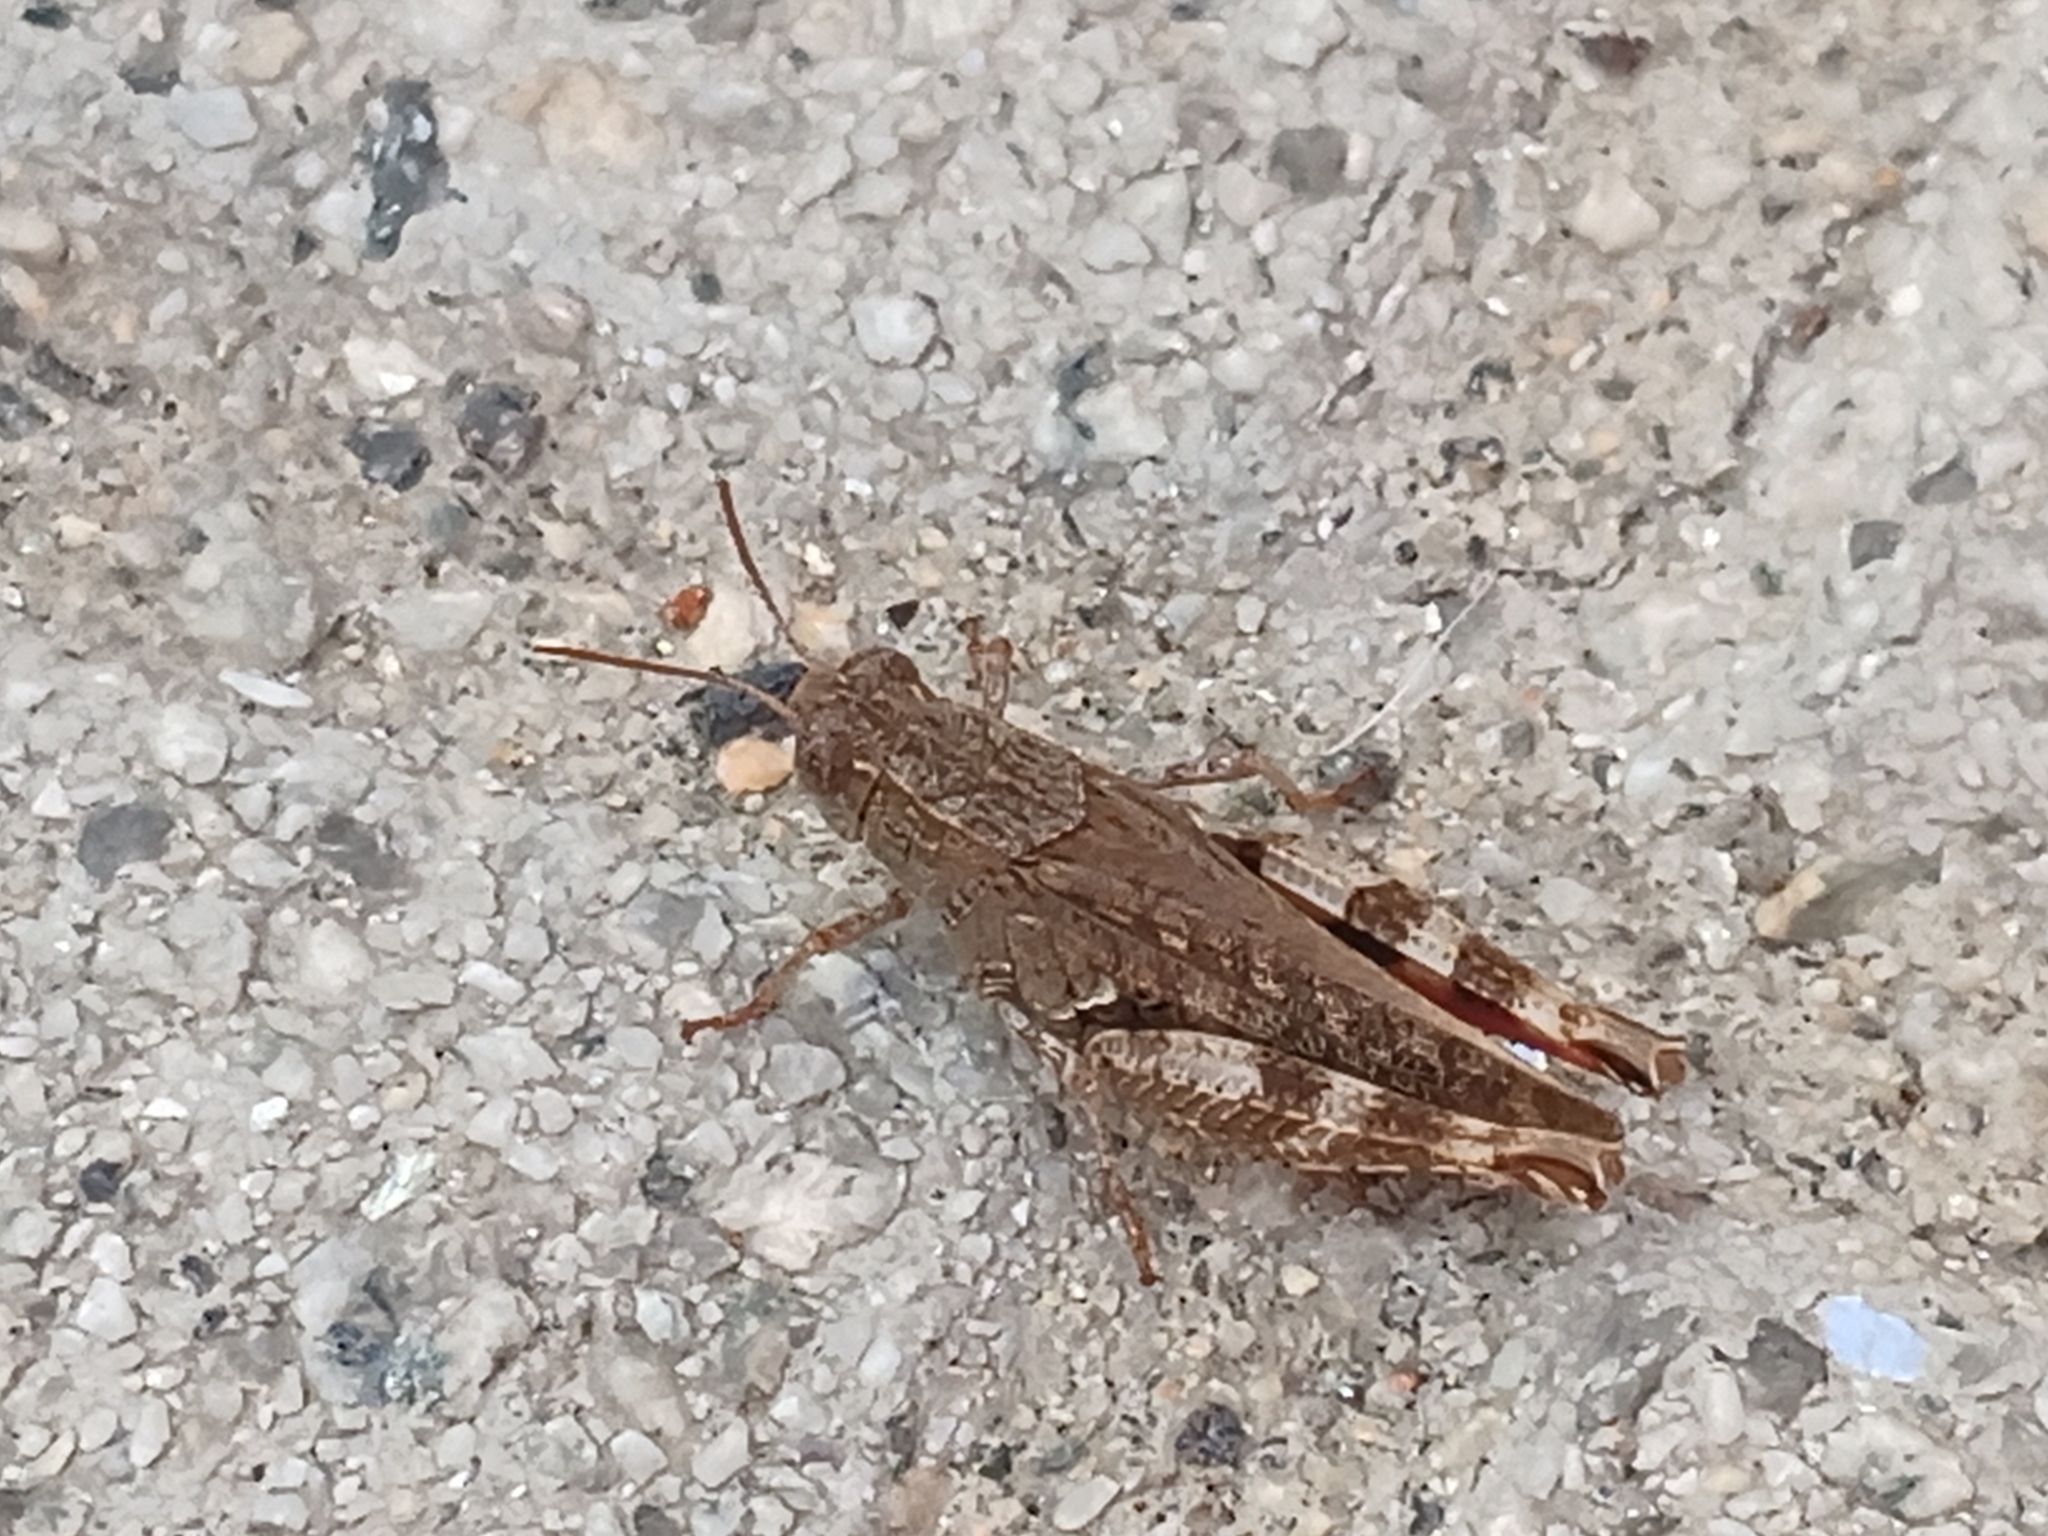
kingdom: Animalia
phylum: Arthropoda
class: Insecta
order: Orthoptera
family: Acrididae
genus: Calliptamus
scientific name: Calliptamus barbarus
